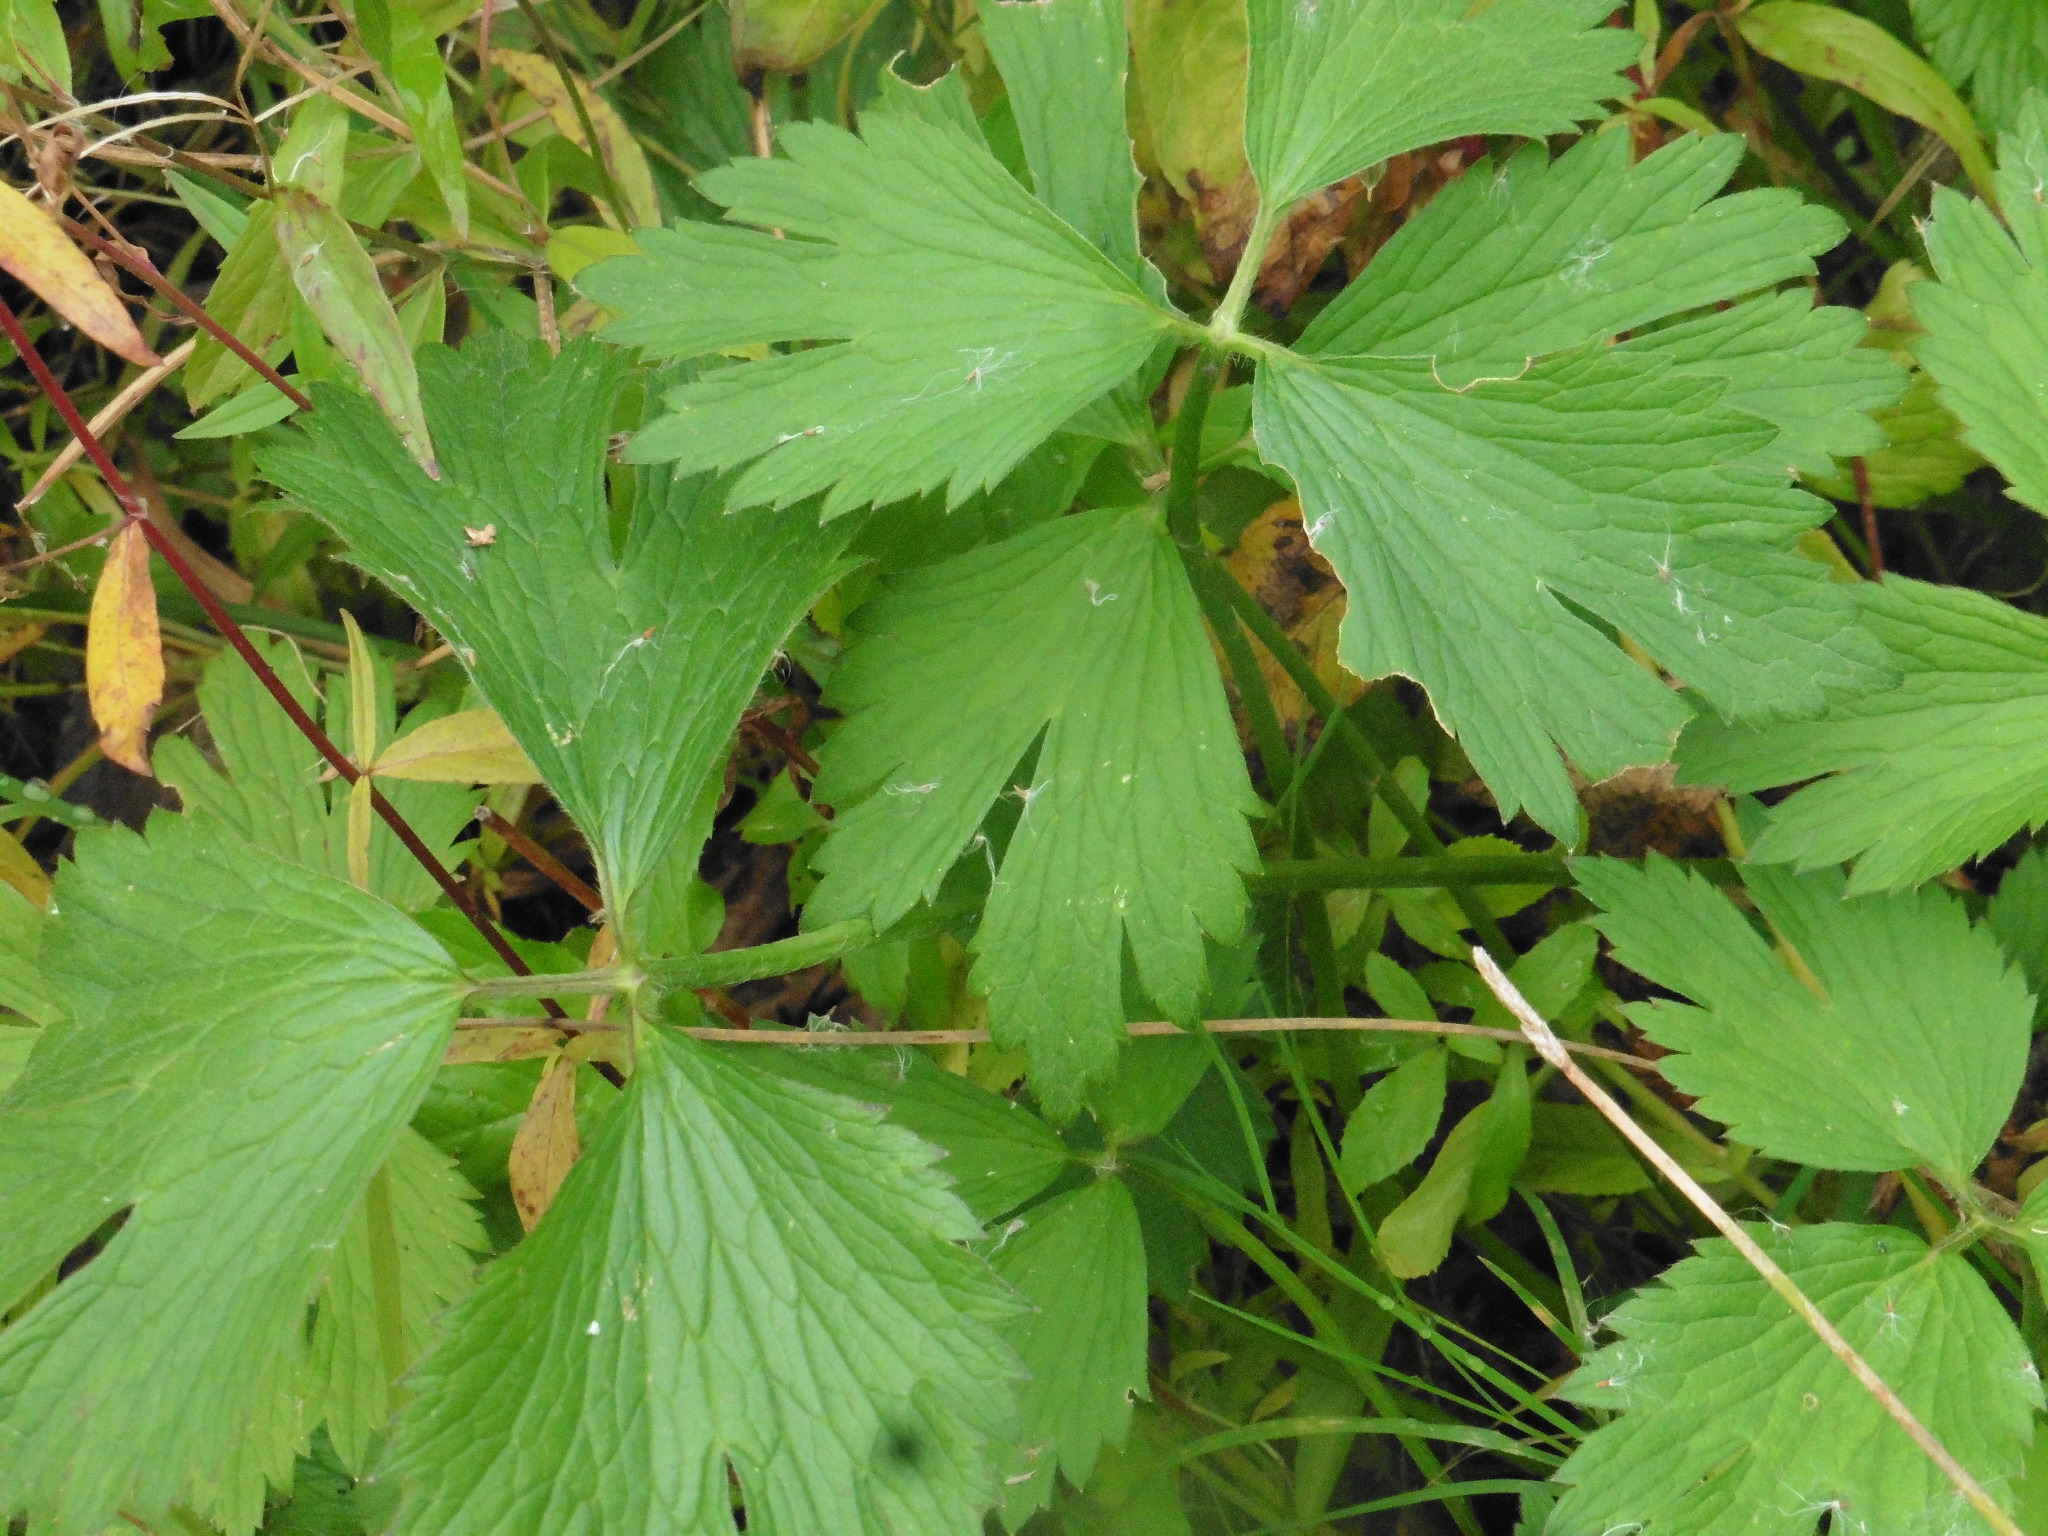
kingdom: Plantae
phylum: Tracheophyta
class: Magnoliopsida
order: Ranunculales
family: Ranunculaceae
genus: Ranunculus
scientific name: Ranunculus repens
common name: Creeping buttercup
